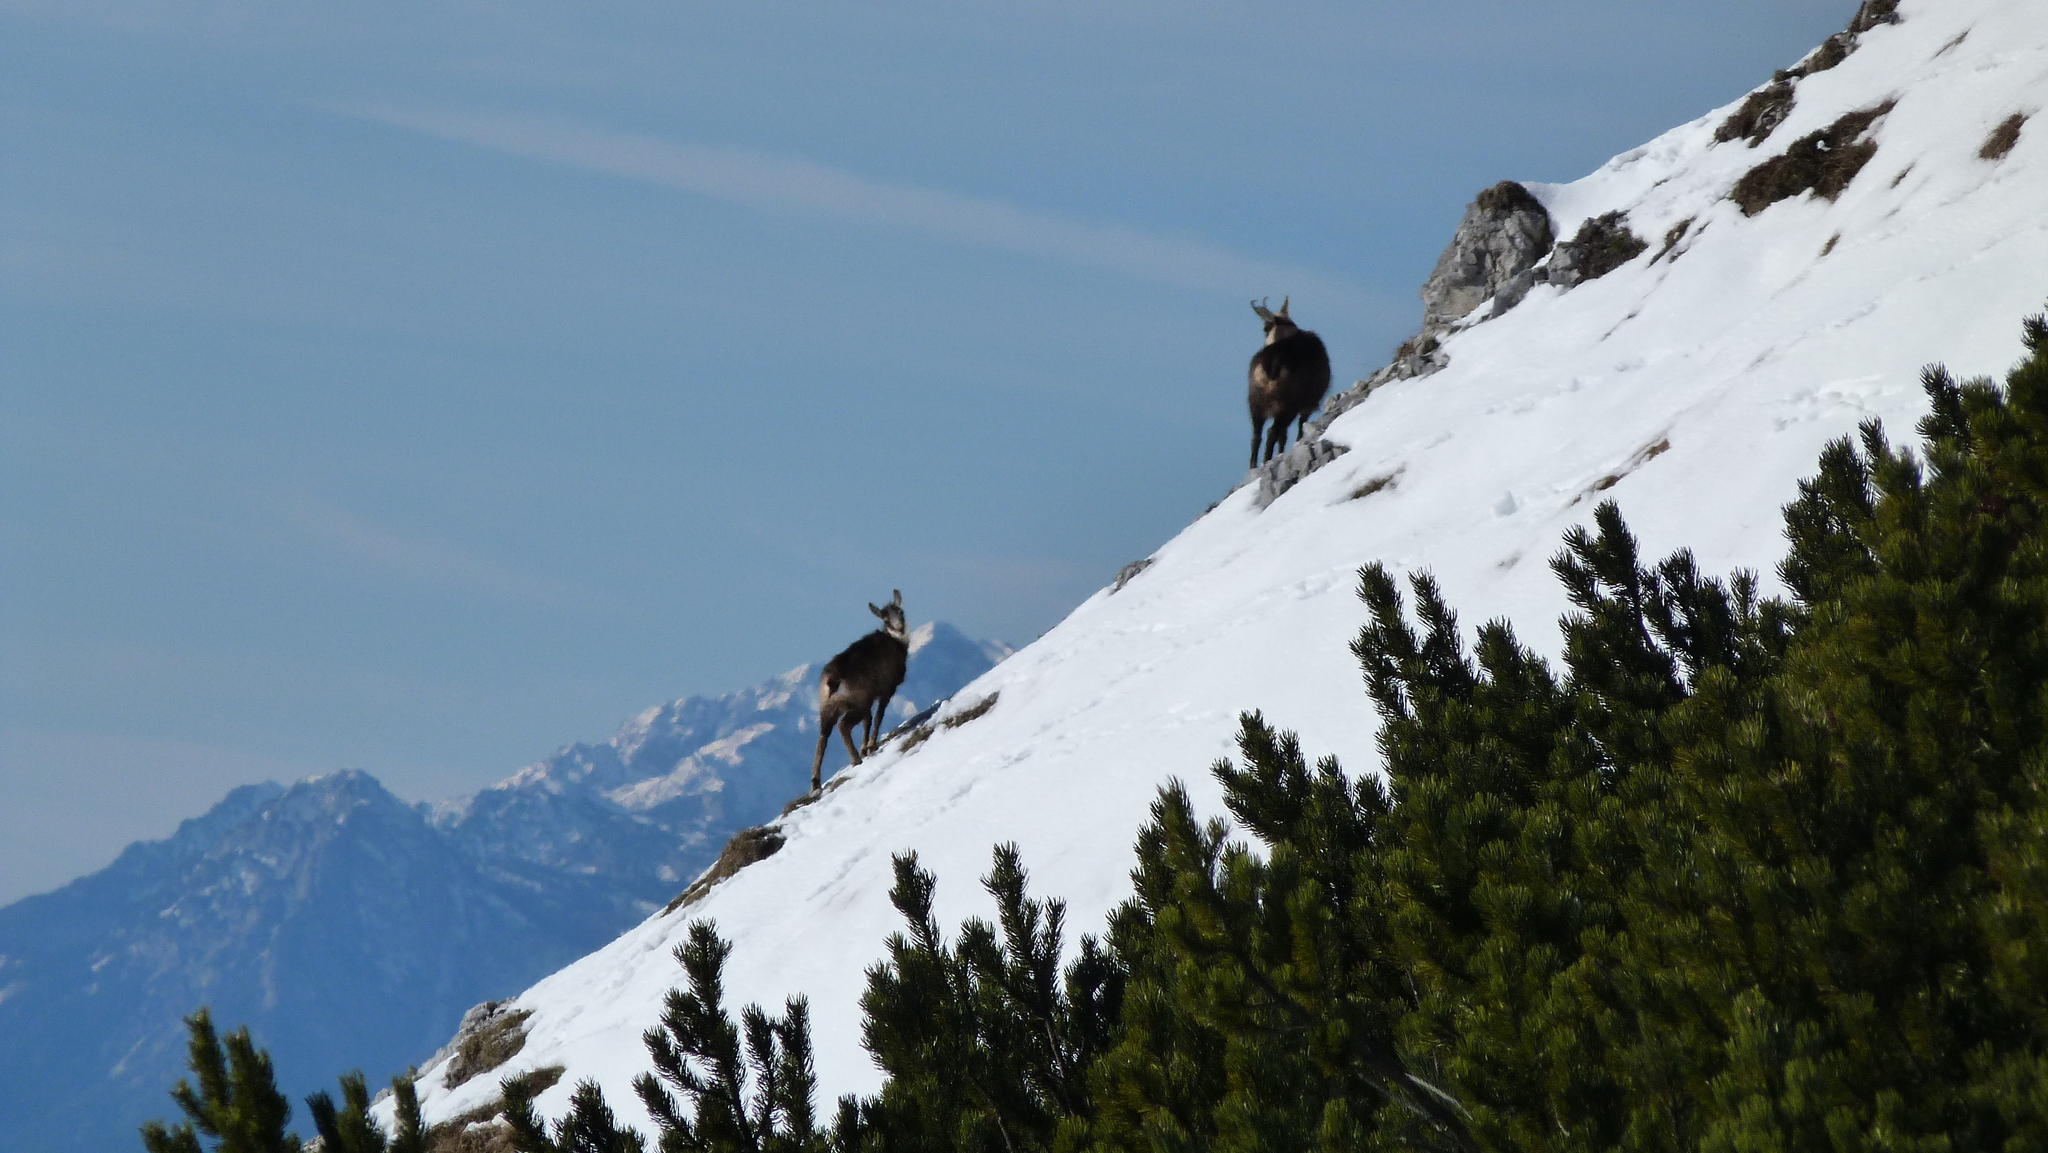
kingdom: Animalia
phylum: Chordata
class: Mammalia
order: Artiodactyla
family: Bovidae
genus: Rupicapra
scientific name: Rupicapra rupicapra
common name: Chamois
